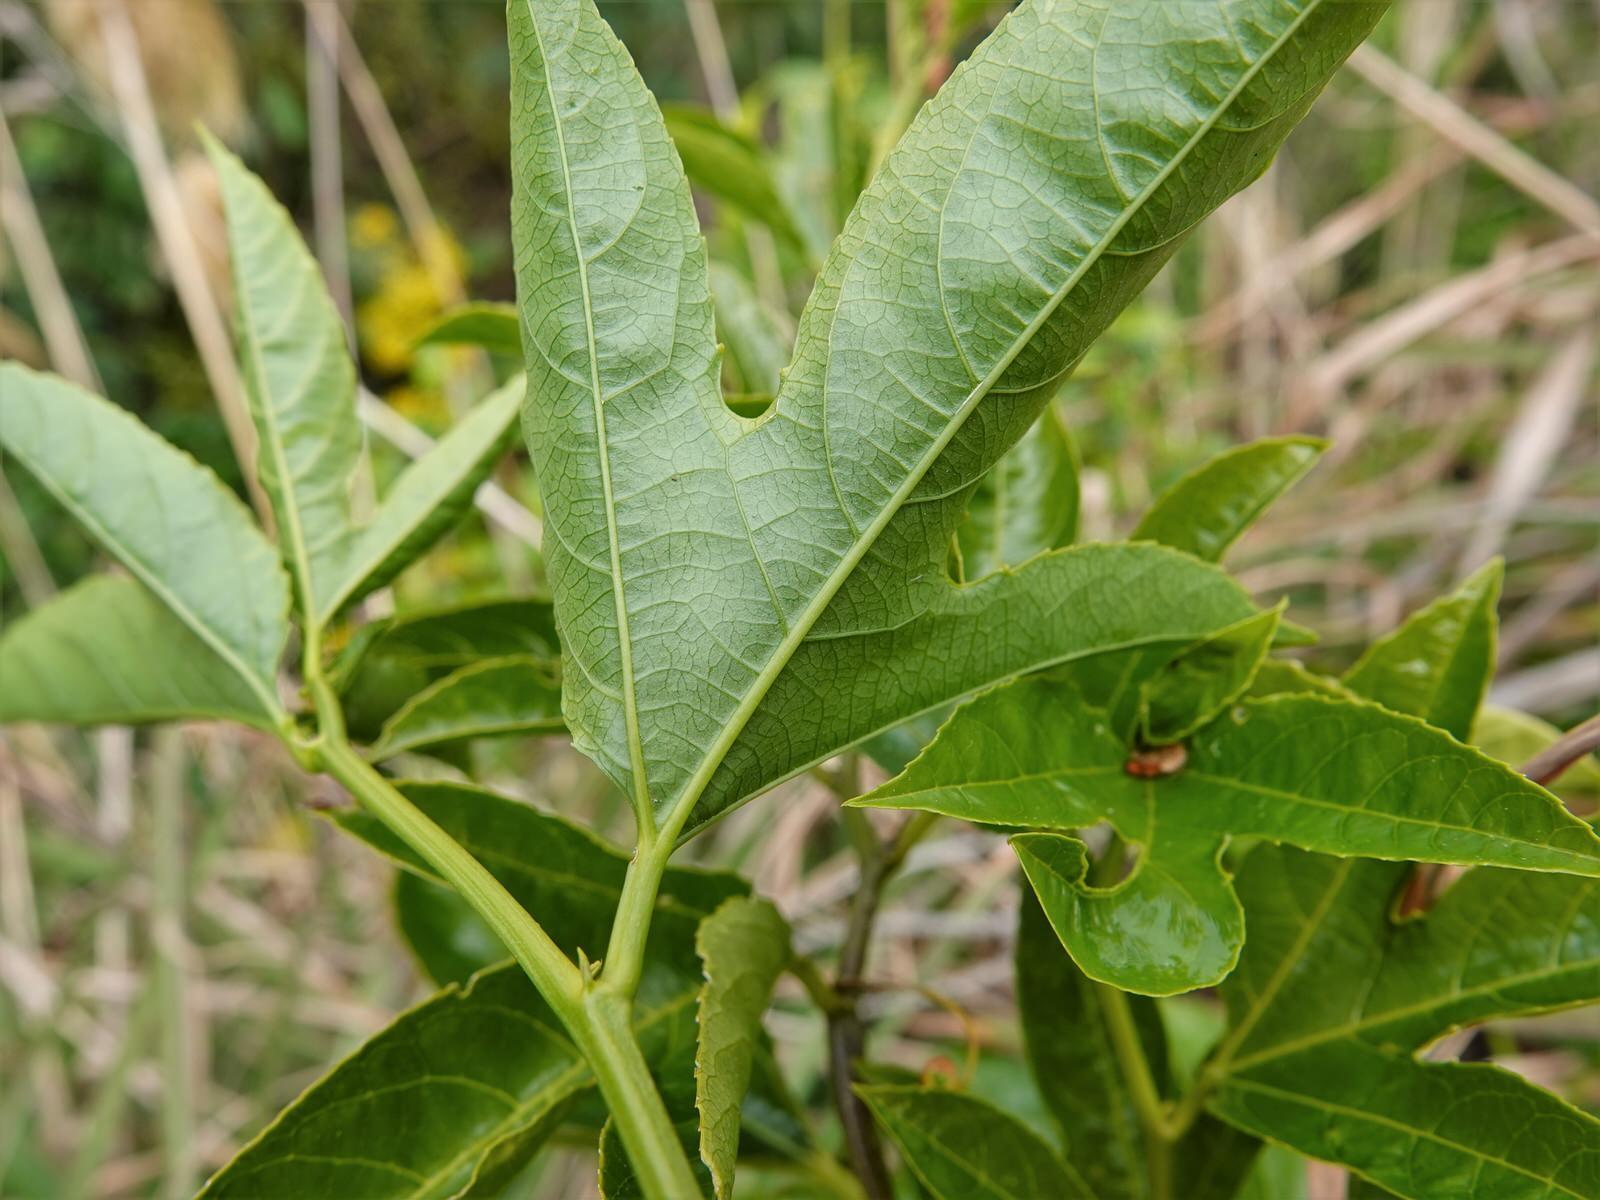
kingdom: Plantae
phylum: Tracheophyta
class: Magnoliopsida
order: Malpighiales
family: Passifloraceae
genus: Passiflora
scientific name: Passiflora edulis
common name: Purple granadilla
